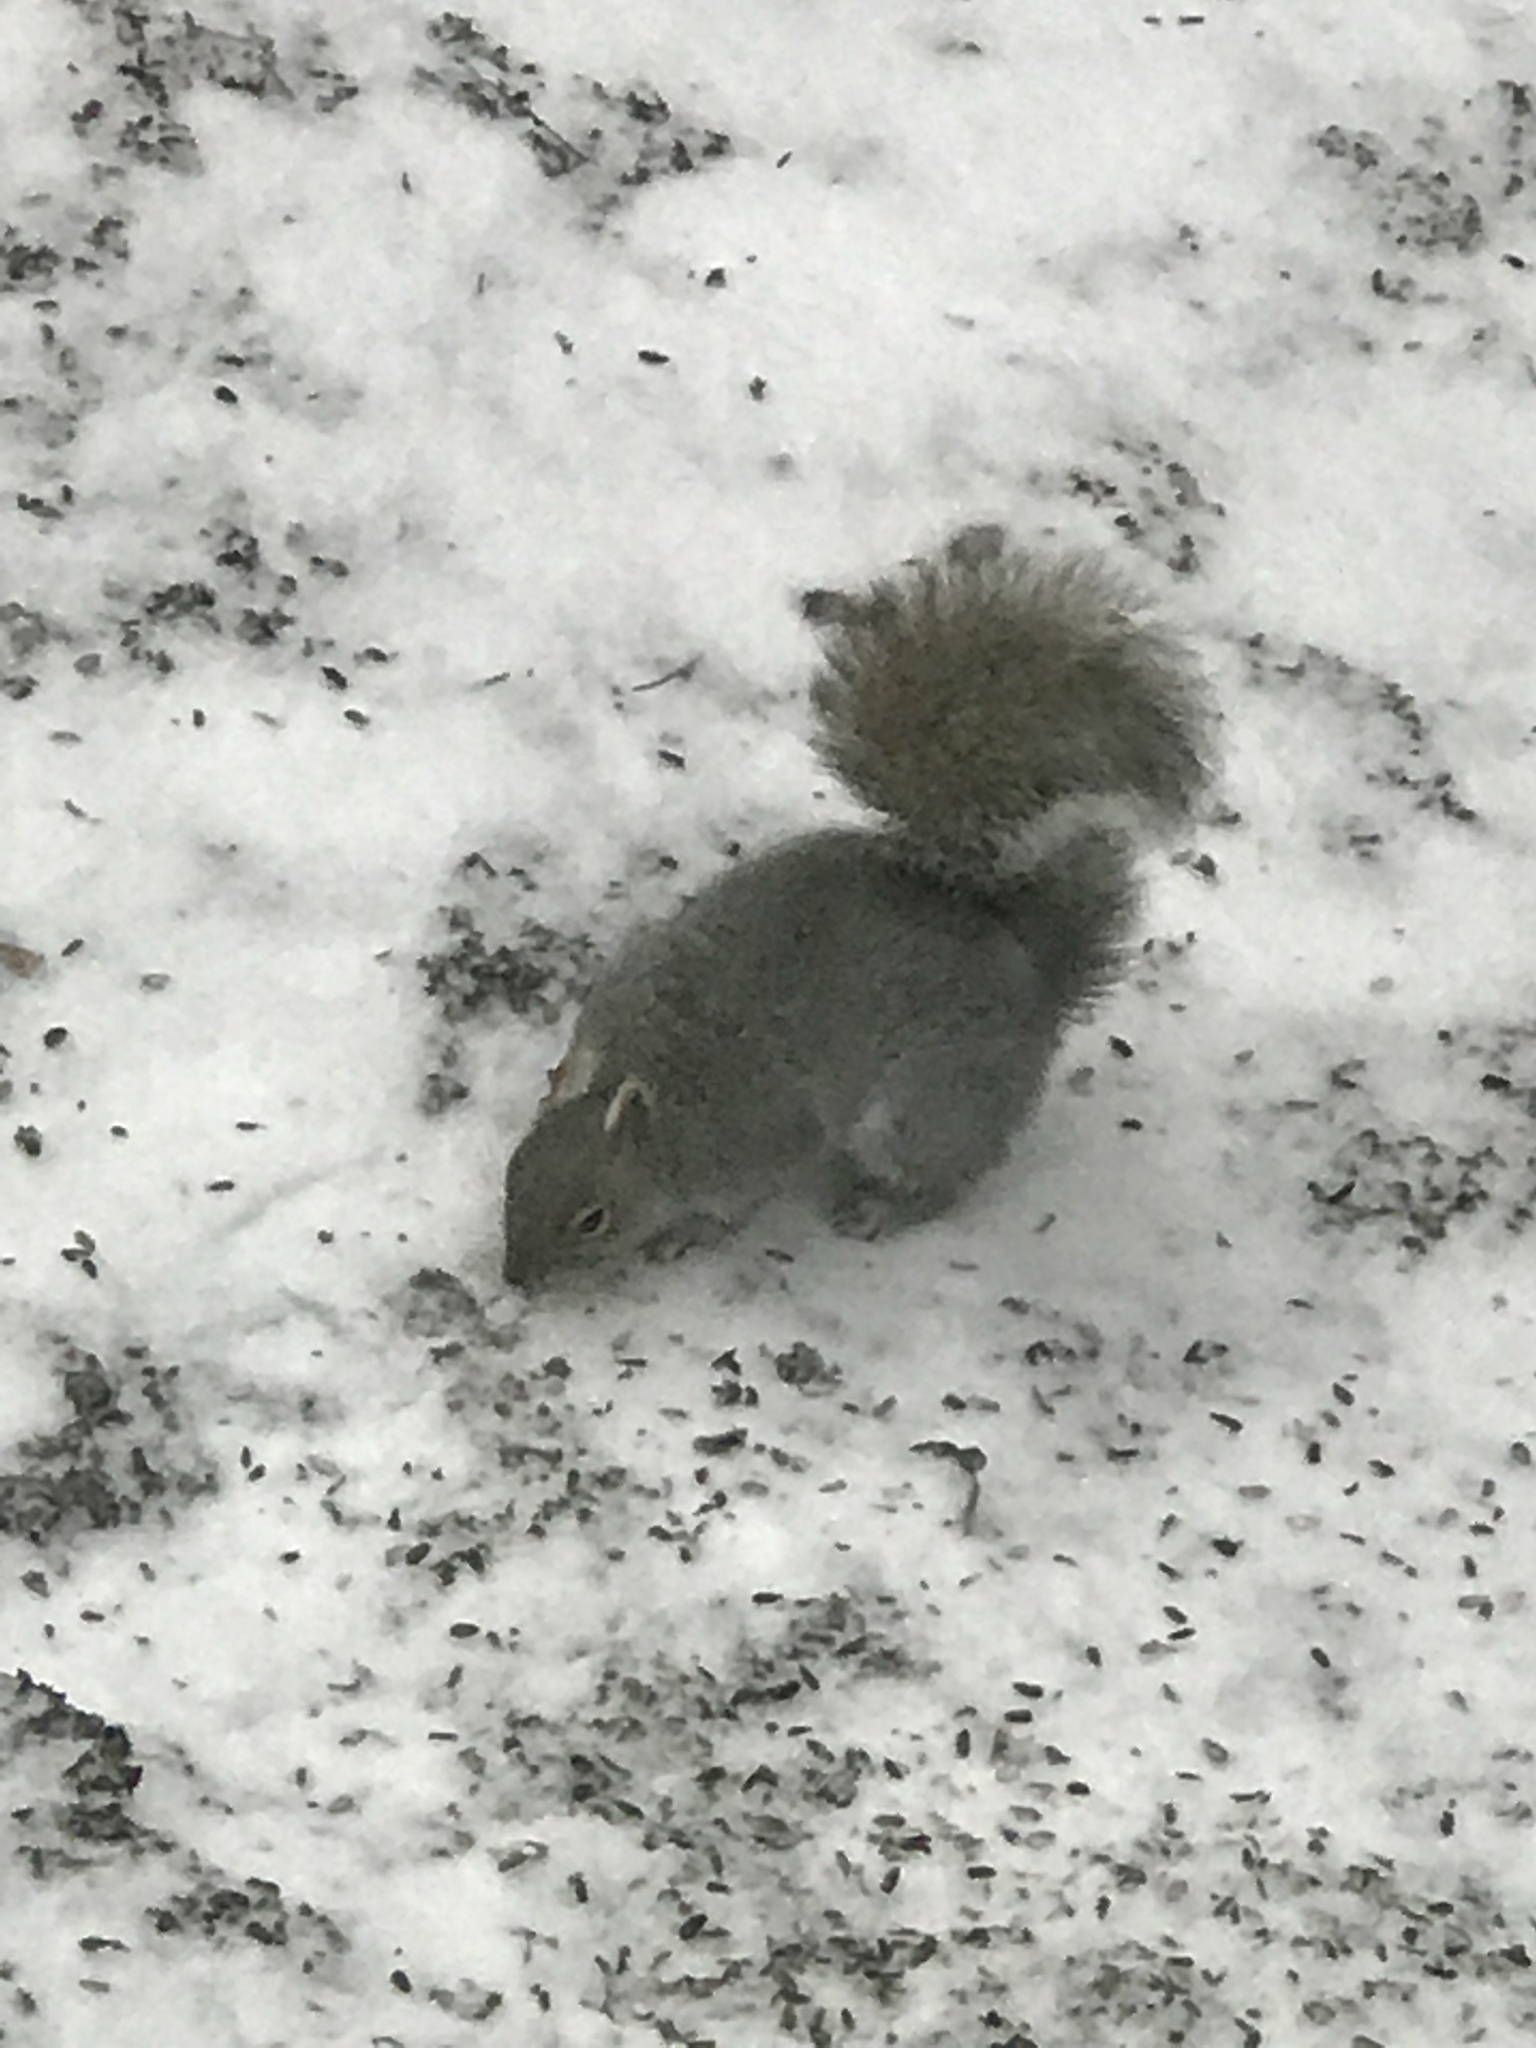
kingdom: Animalia
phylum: Chordata
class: Mammalia
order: Rodentia
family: Sciuridae
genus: Sciurus
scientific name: Sciurus carolinensis
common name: Eastern gray squirrel
